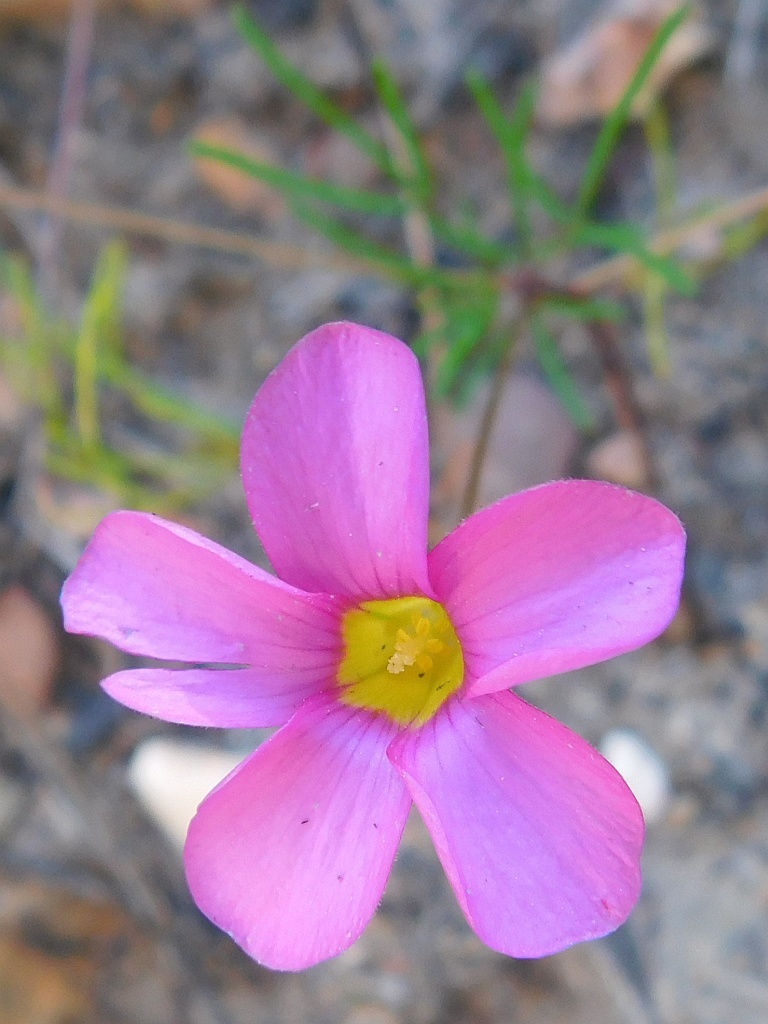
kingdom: Plantae
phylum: Tracheophyta
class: Magnoliopsida
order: Oxalidales
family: Oxalidaceae
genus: Oxalis
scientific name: Oxalis polyphylla
